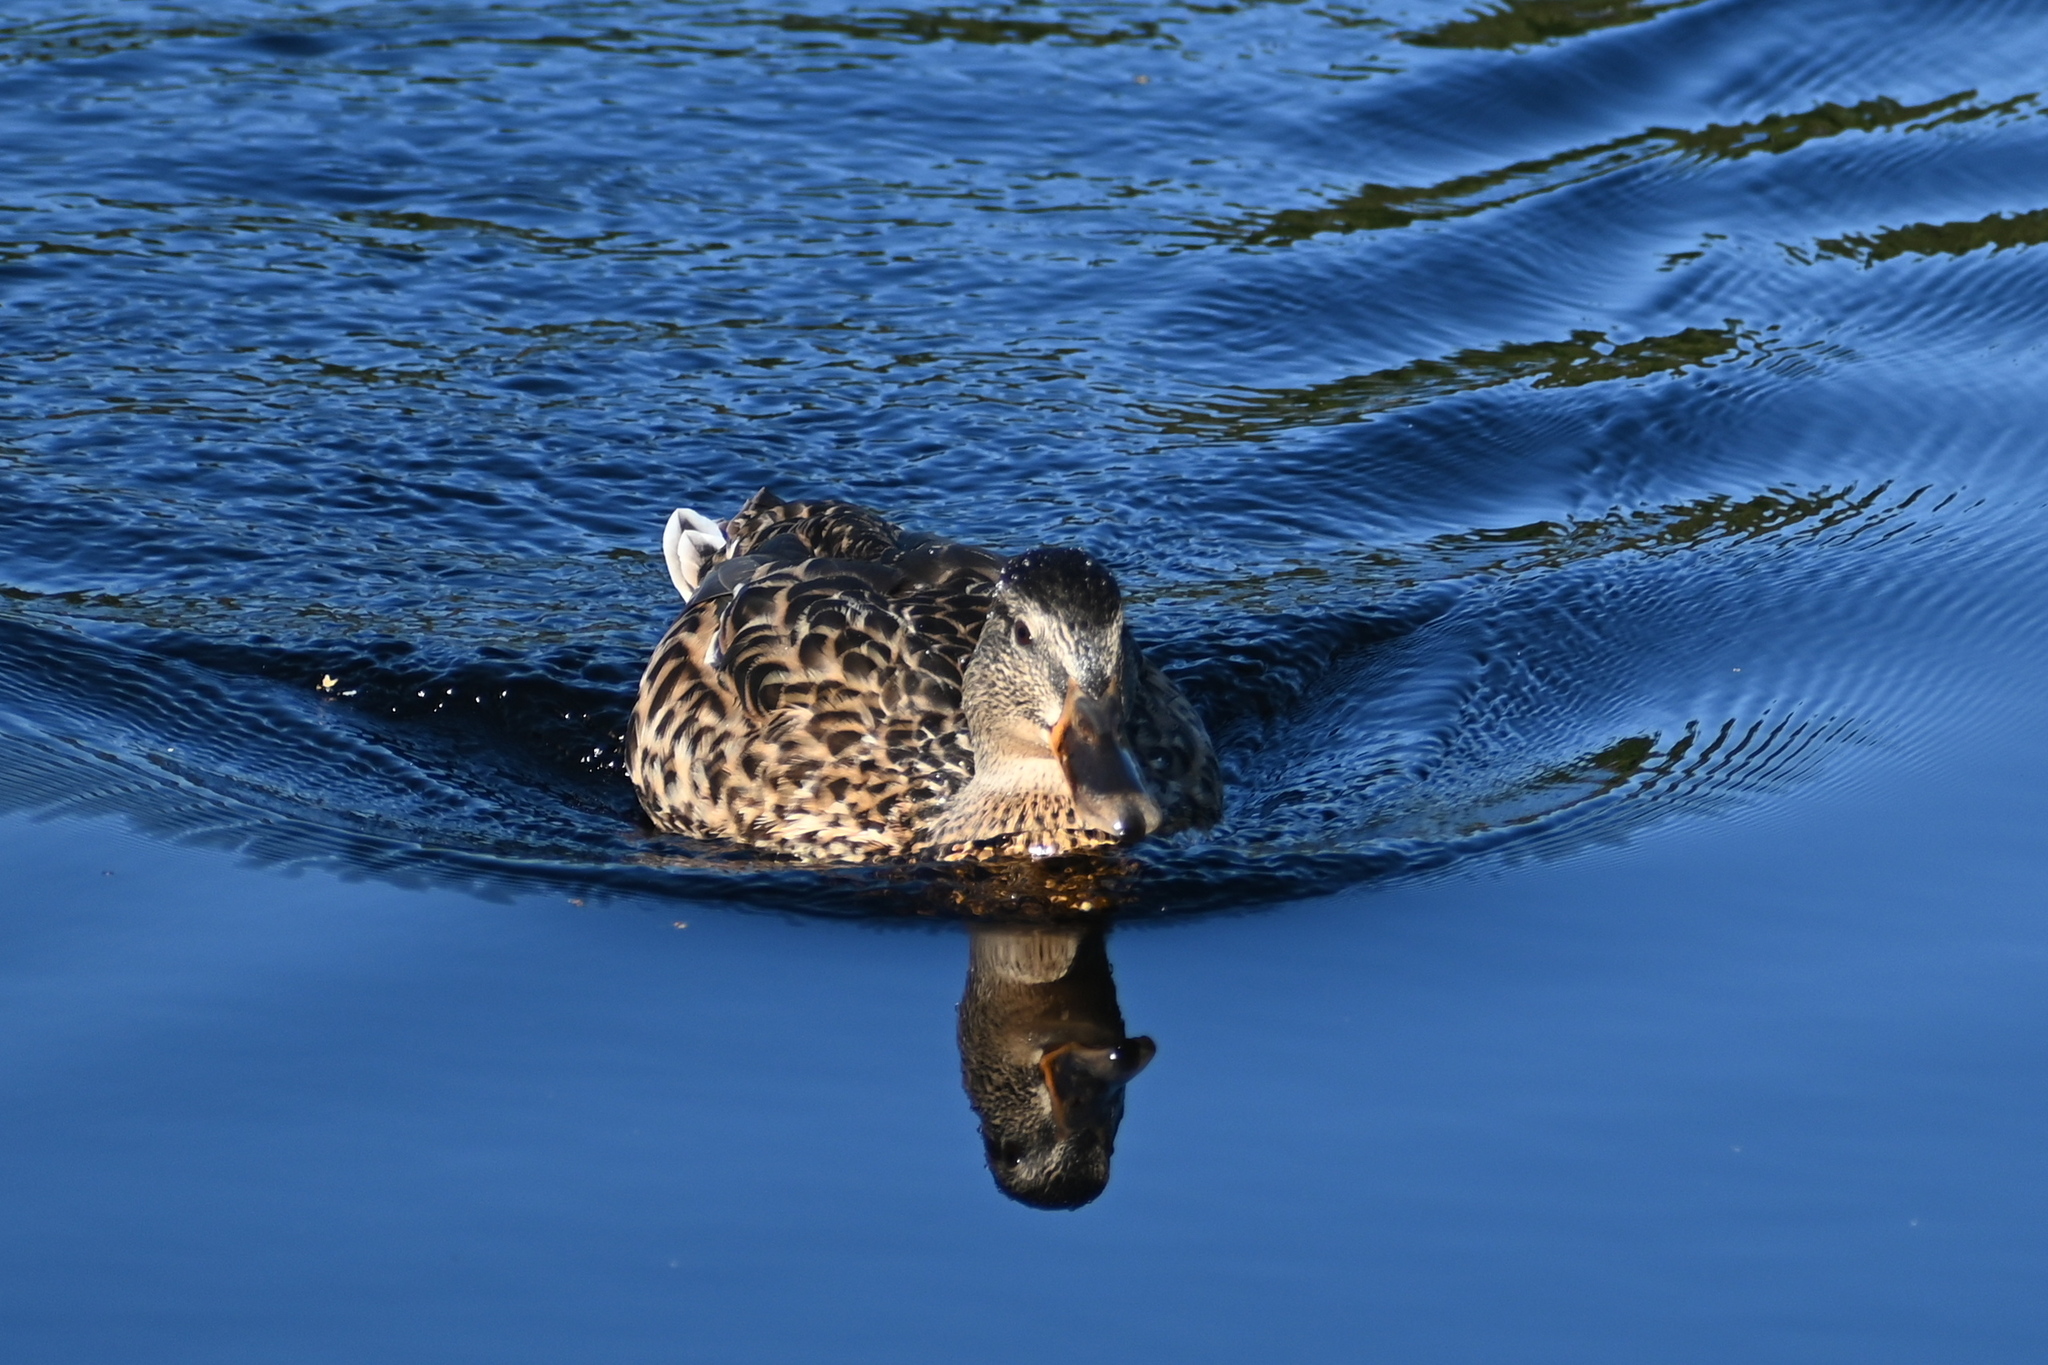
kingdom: Animalia
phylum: Chordata
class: Aves
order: Anseriformes
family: Anatidae
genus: Anas
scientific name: Anas platyrhynchos
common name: Mallard
